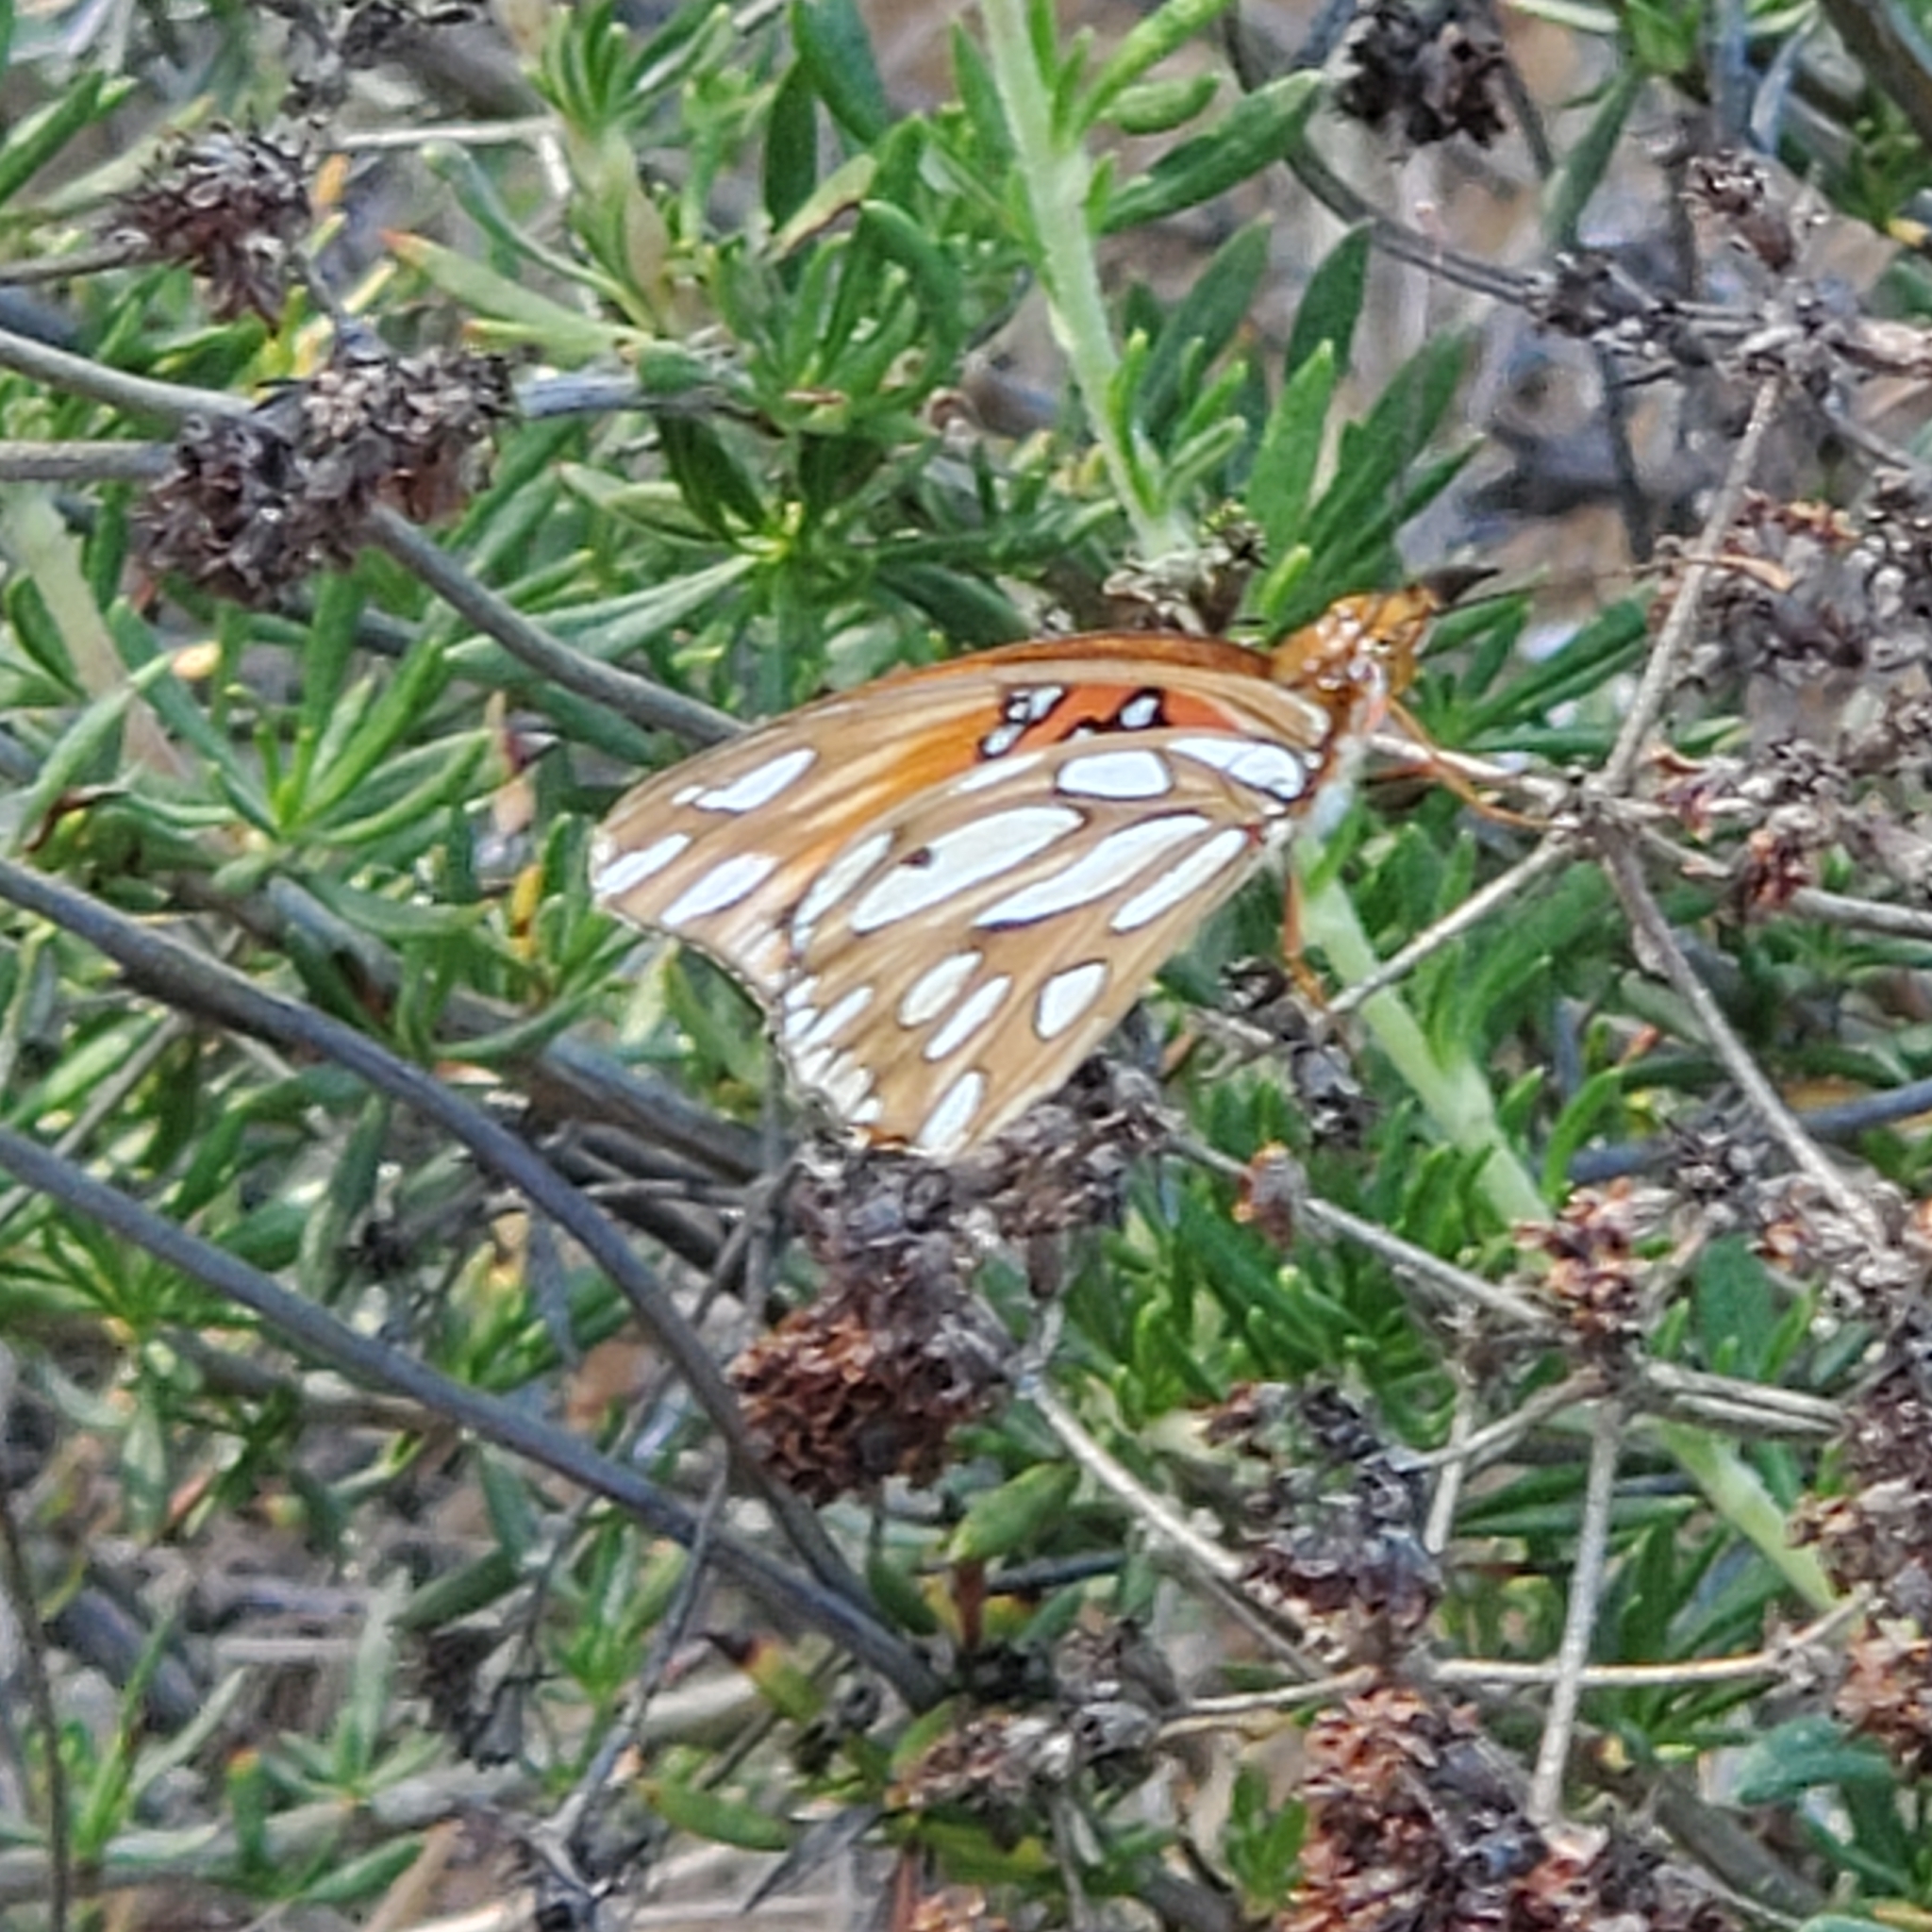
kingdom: Animalia
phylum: Arthropoda
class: Insecta
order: Lepidoptera
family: Nymphalidae
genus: Dione
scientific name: Dione vanillae
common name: Gulf fritillary
